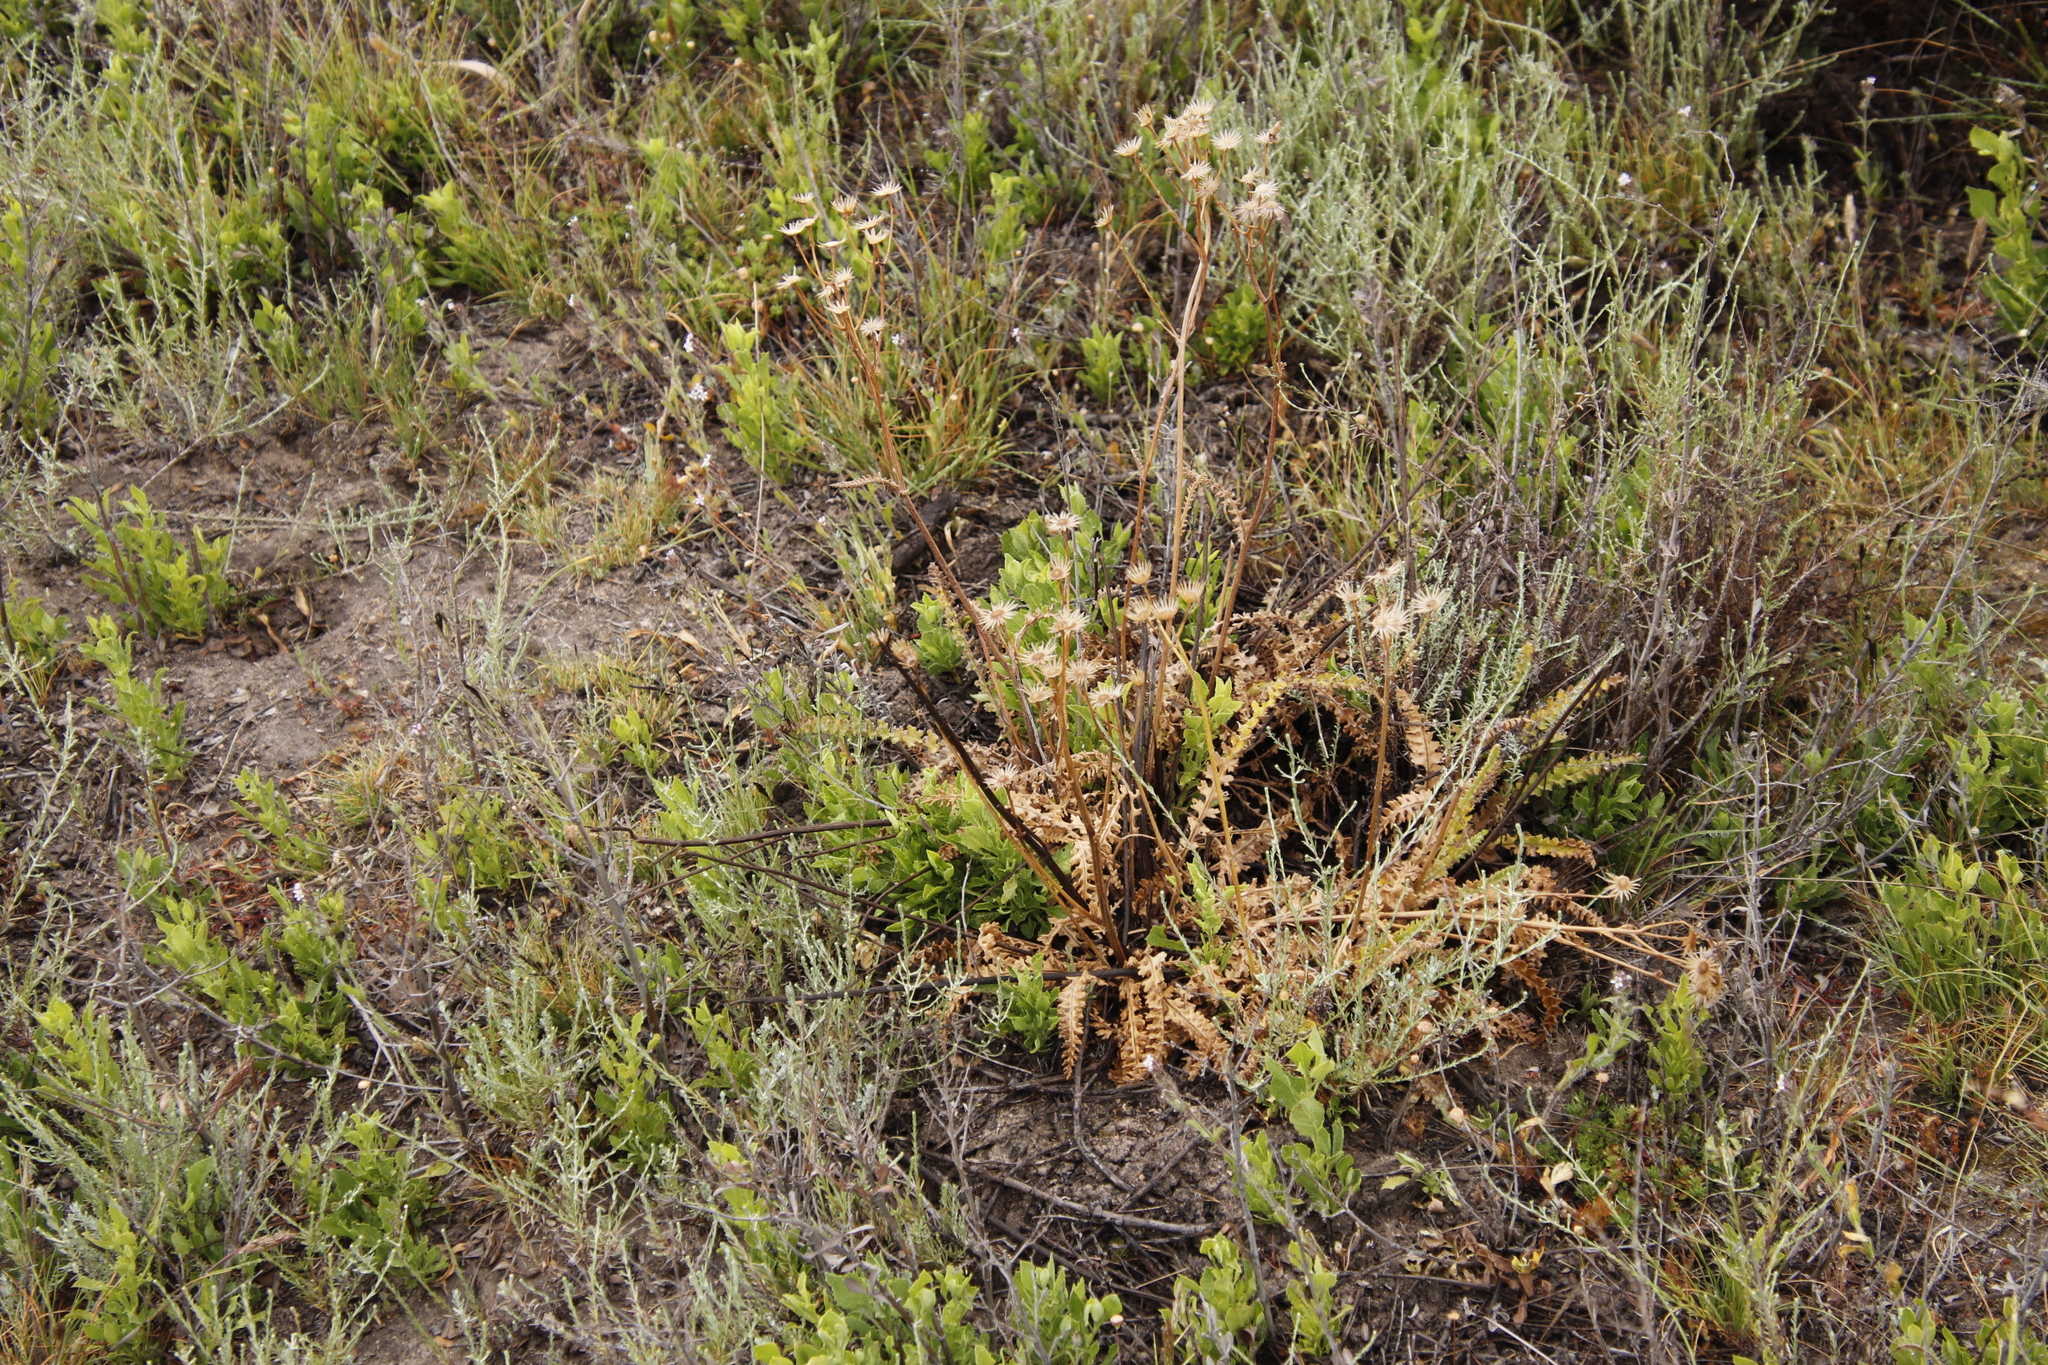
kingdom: Plantae
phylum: Tracheophyta
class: Magnoliopsida
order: Asterales
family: Asteraceae
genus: Senecio
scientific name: Senecio spiraeifolius
